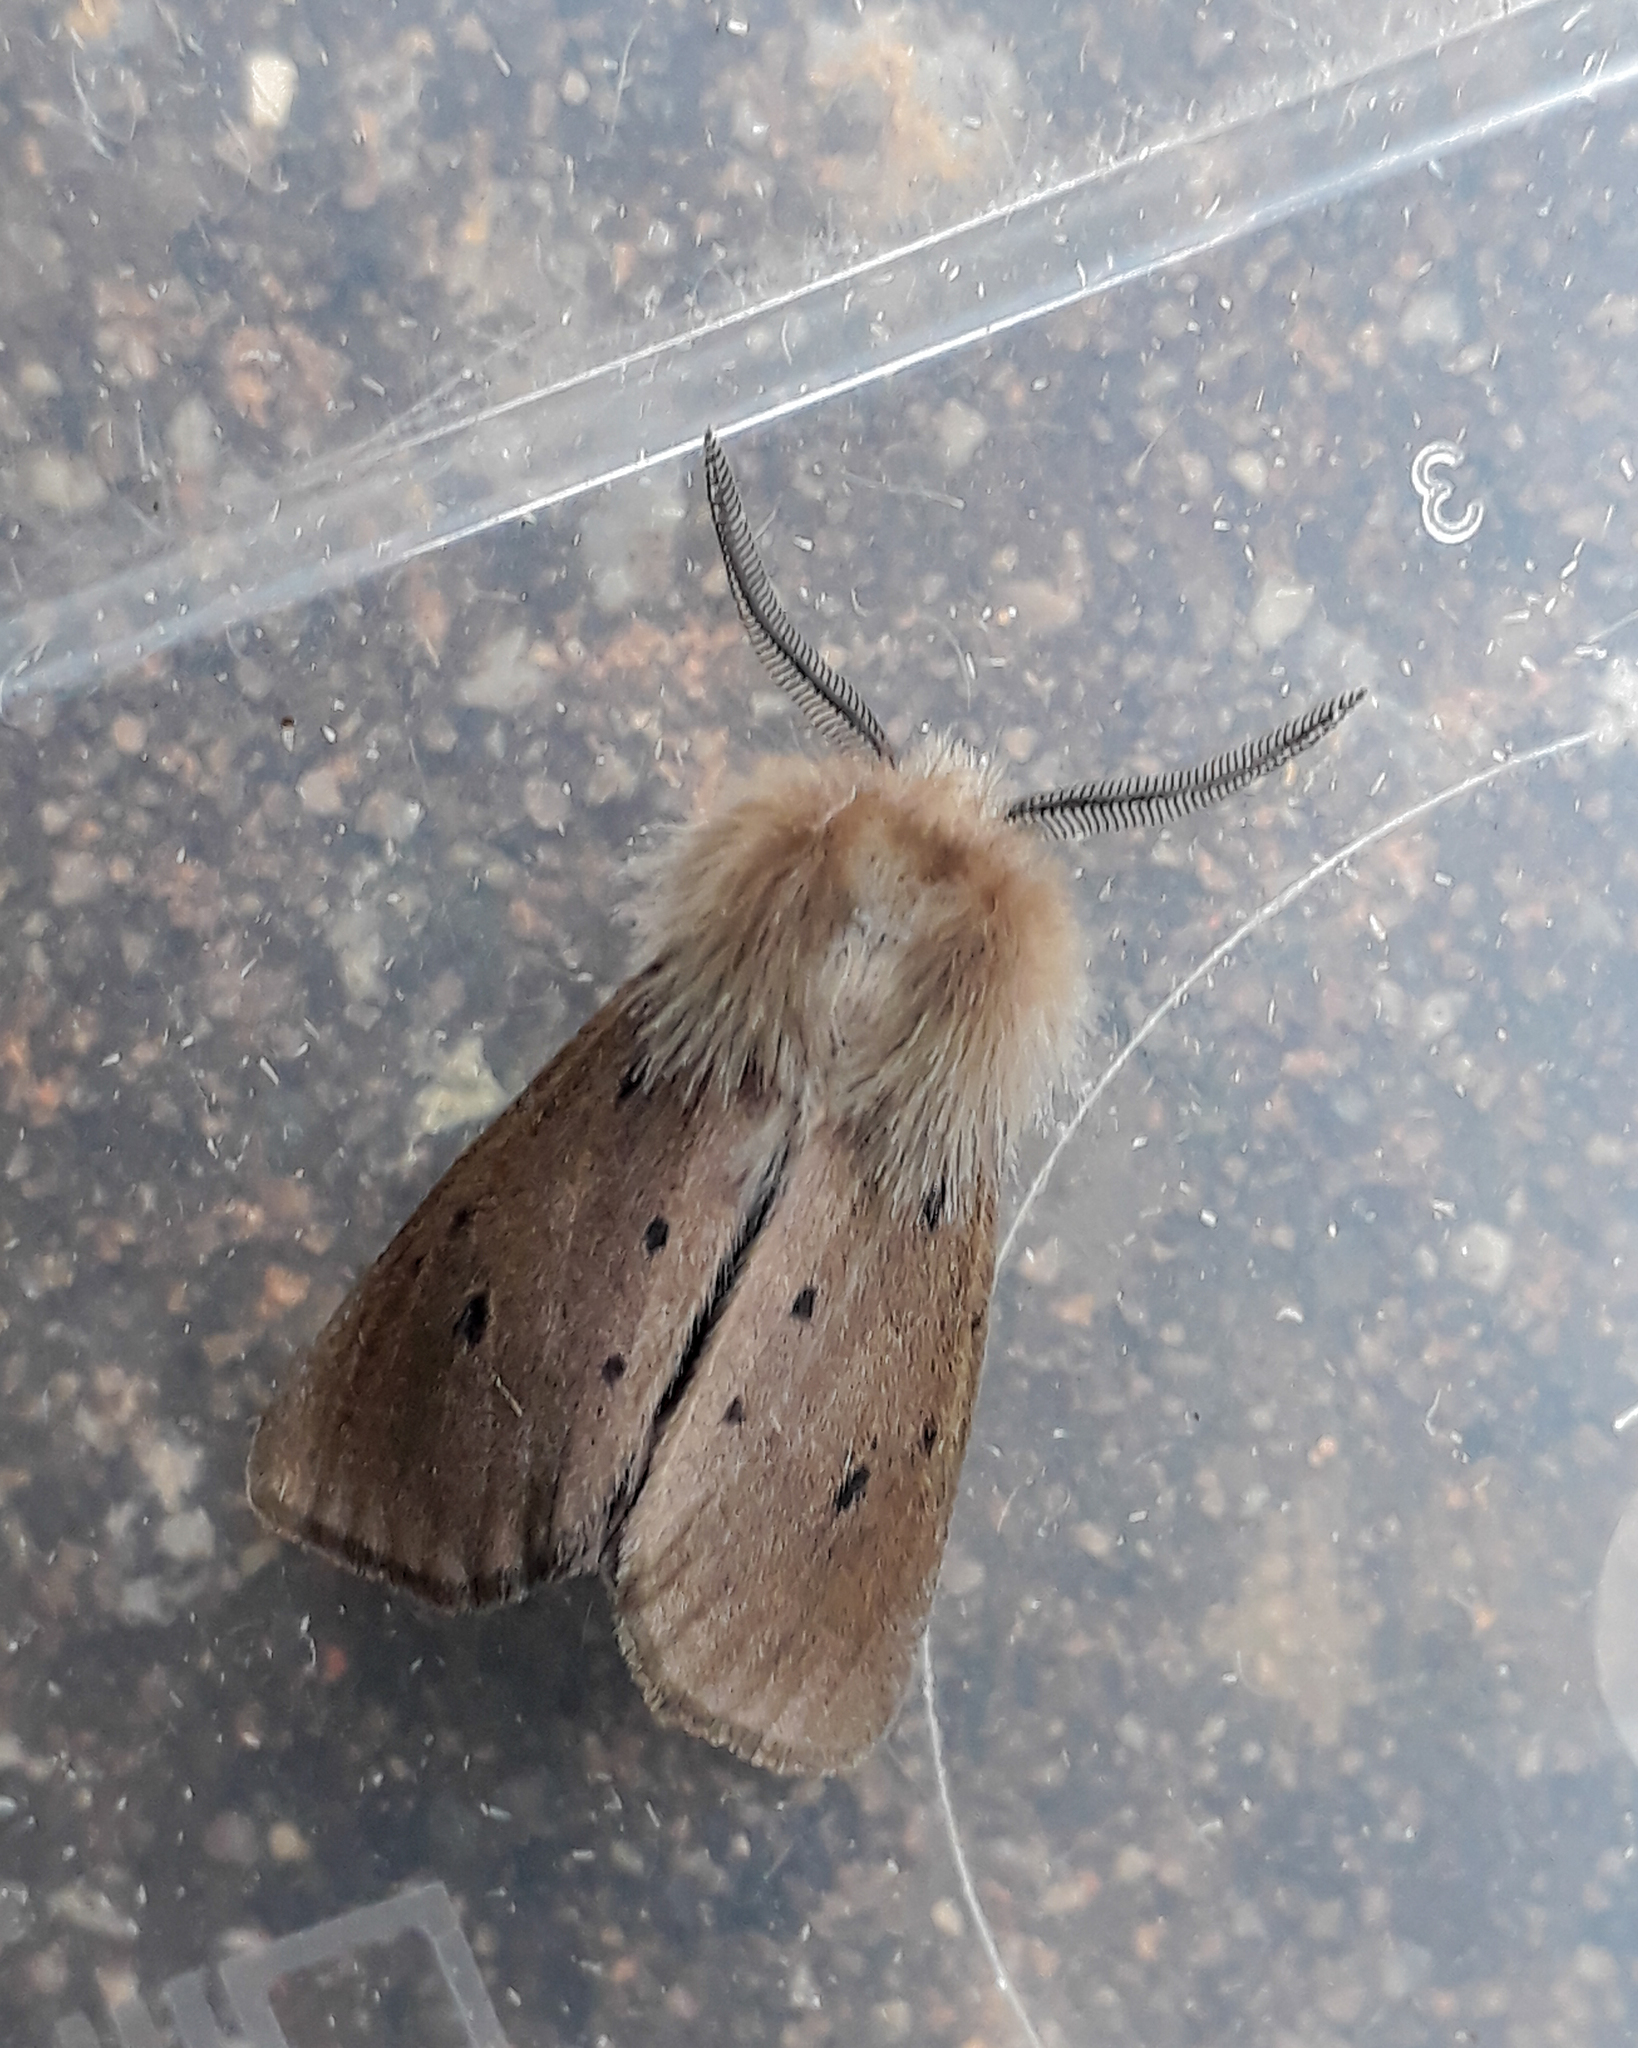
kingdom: Animalia
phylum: Arthropoda
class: Insecta
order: Lepidoptera
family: Erebidae
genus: Diaphora
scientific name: Diaphora mendica
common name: Muslin moth
